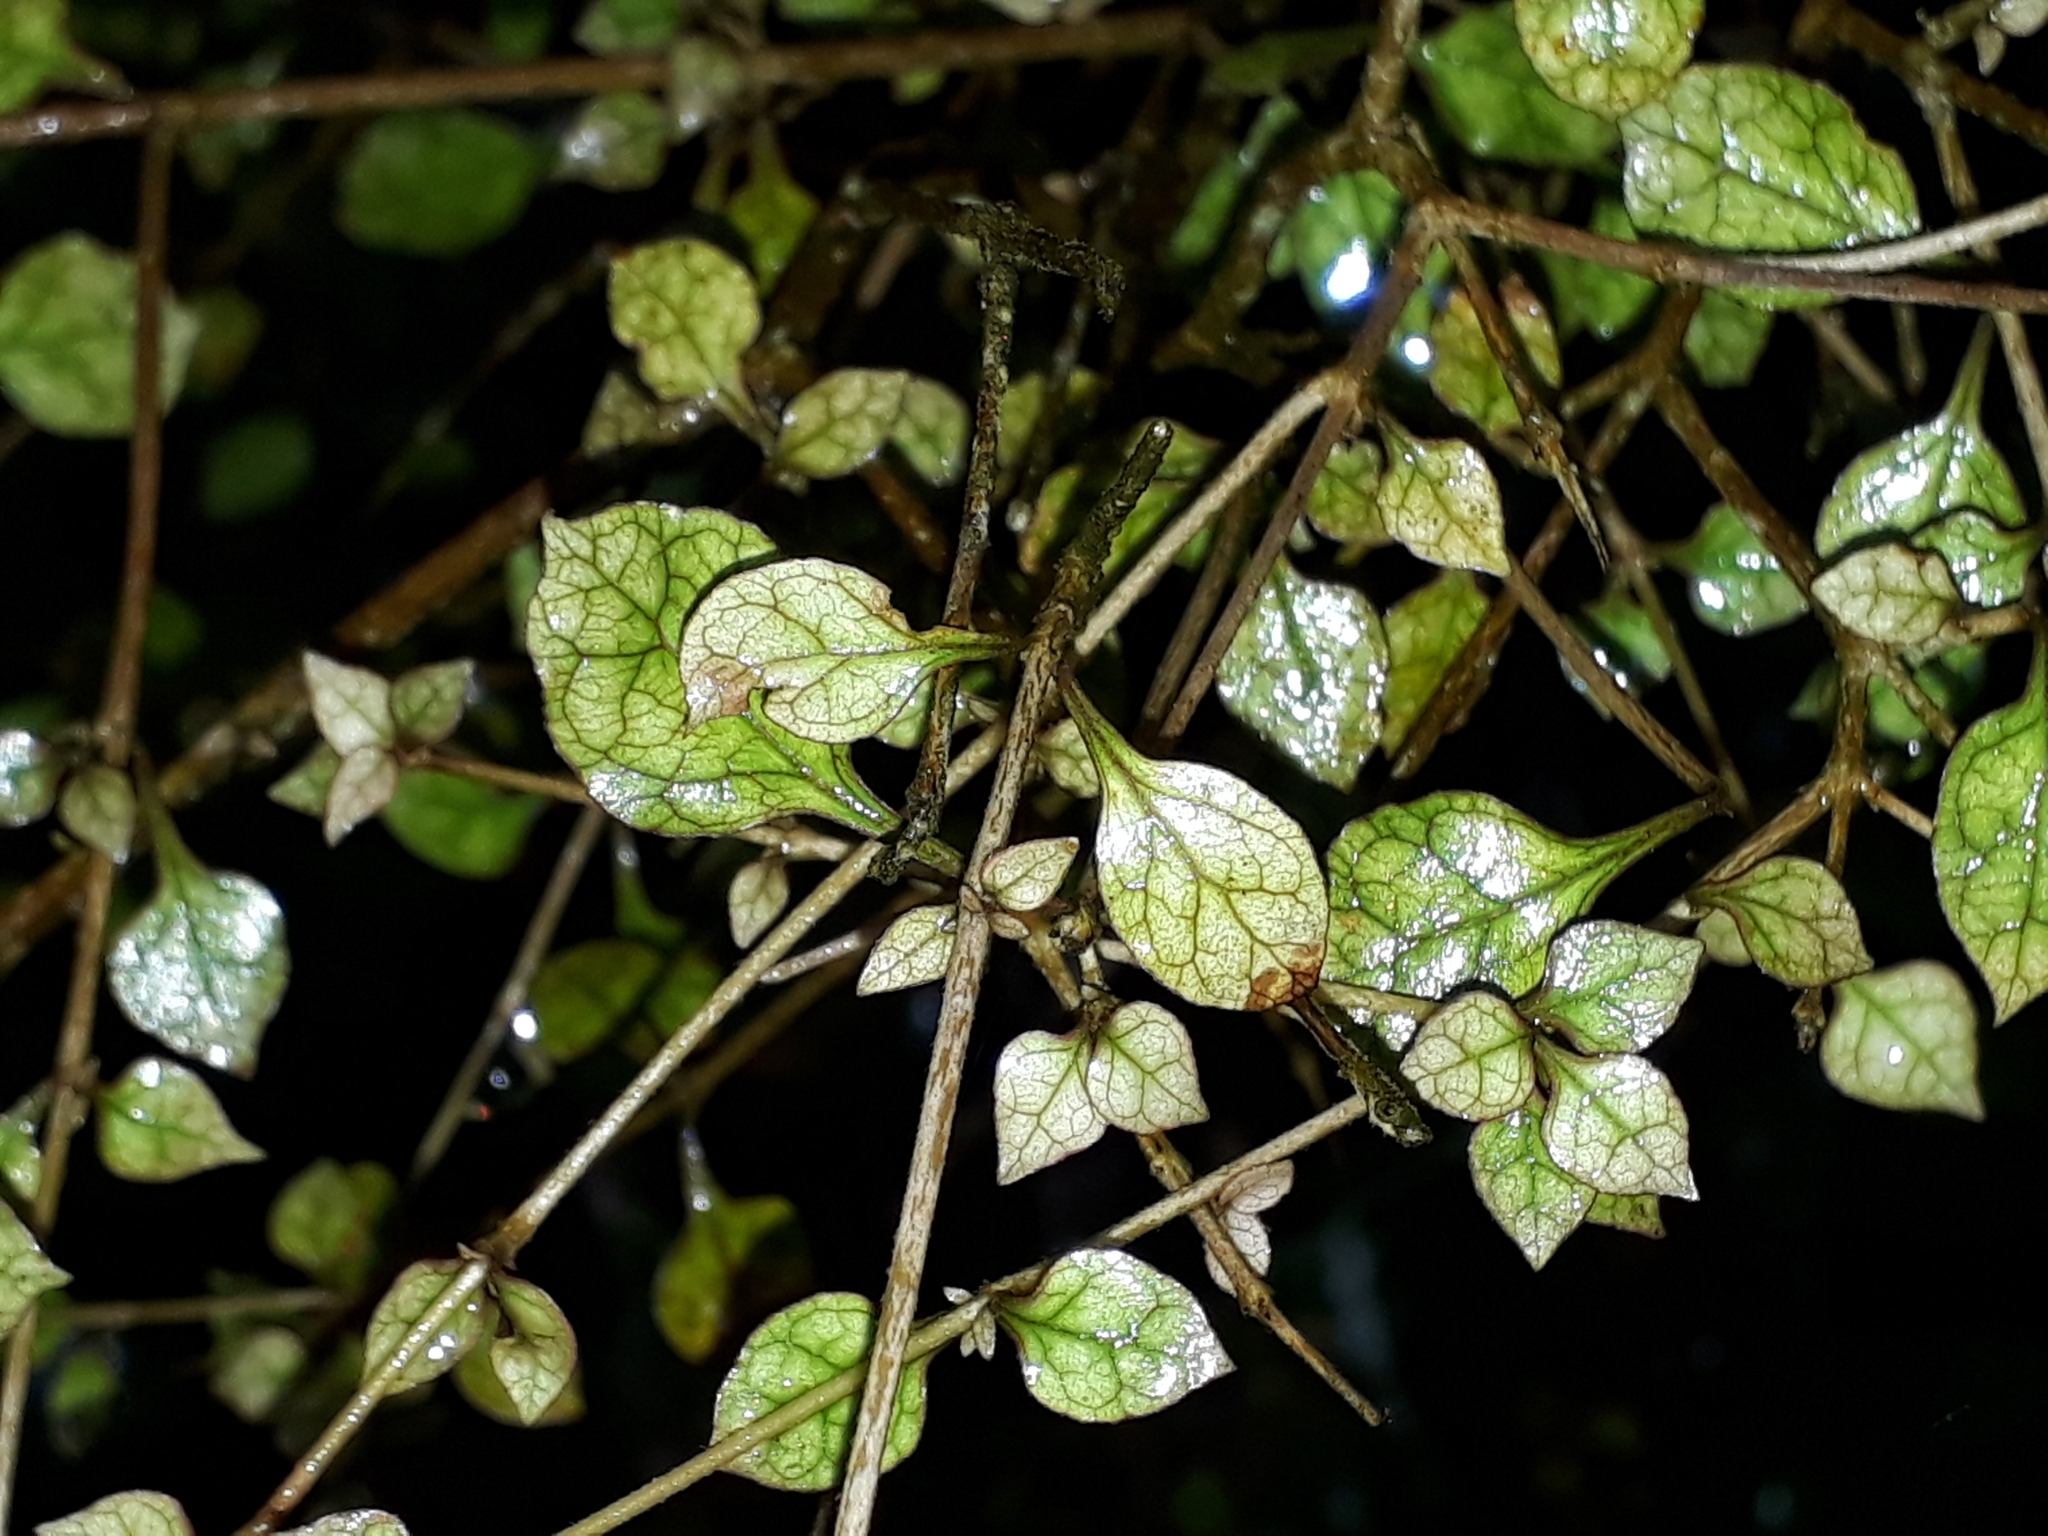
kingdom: Plantae
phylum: Tracheophyta
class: Magnoliopsida
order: Gentianales
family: Rubiaceae
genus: Coprosma
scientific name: Coprosma areolata
